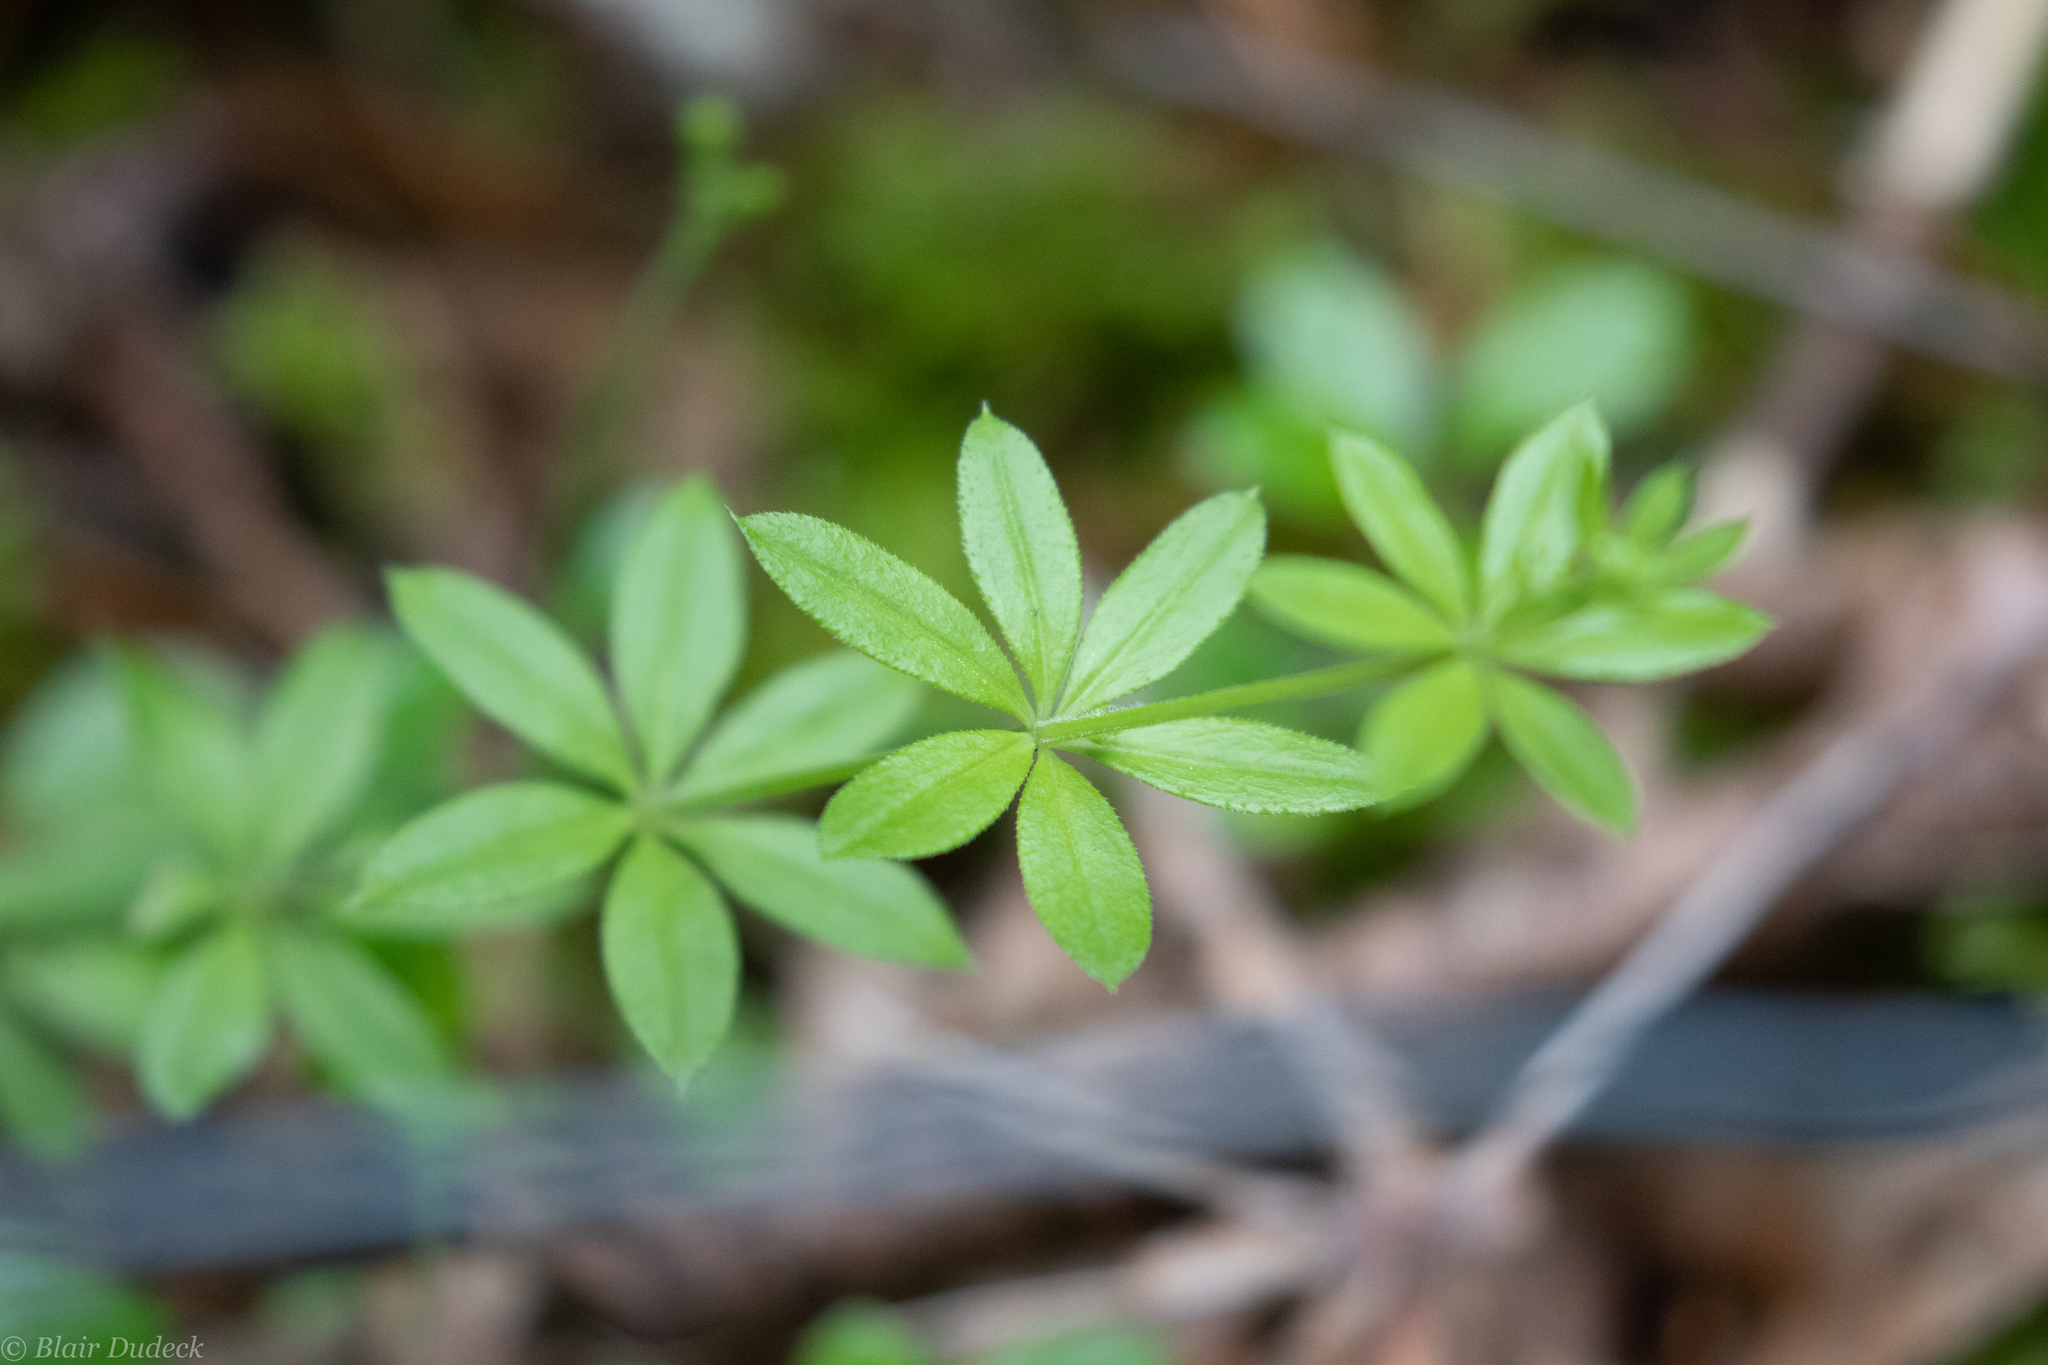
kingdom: Plantae
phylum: Tracheophyta
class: Magnoliopsida
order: Gentianales
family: Rubiaceae
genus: Galium
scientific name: Galium triflorum
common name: Fragrant bedstraw
